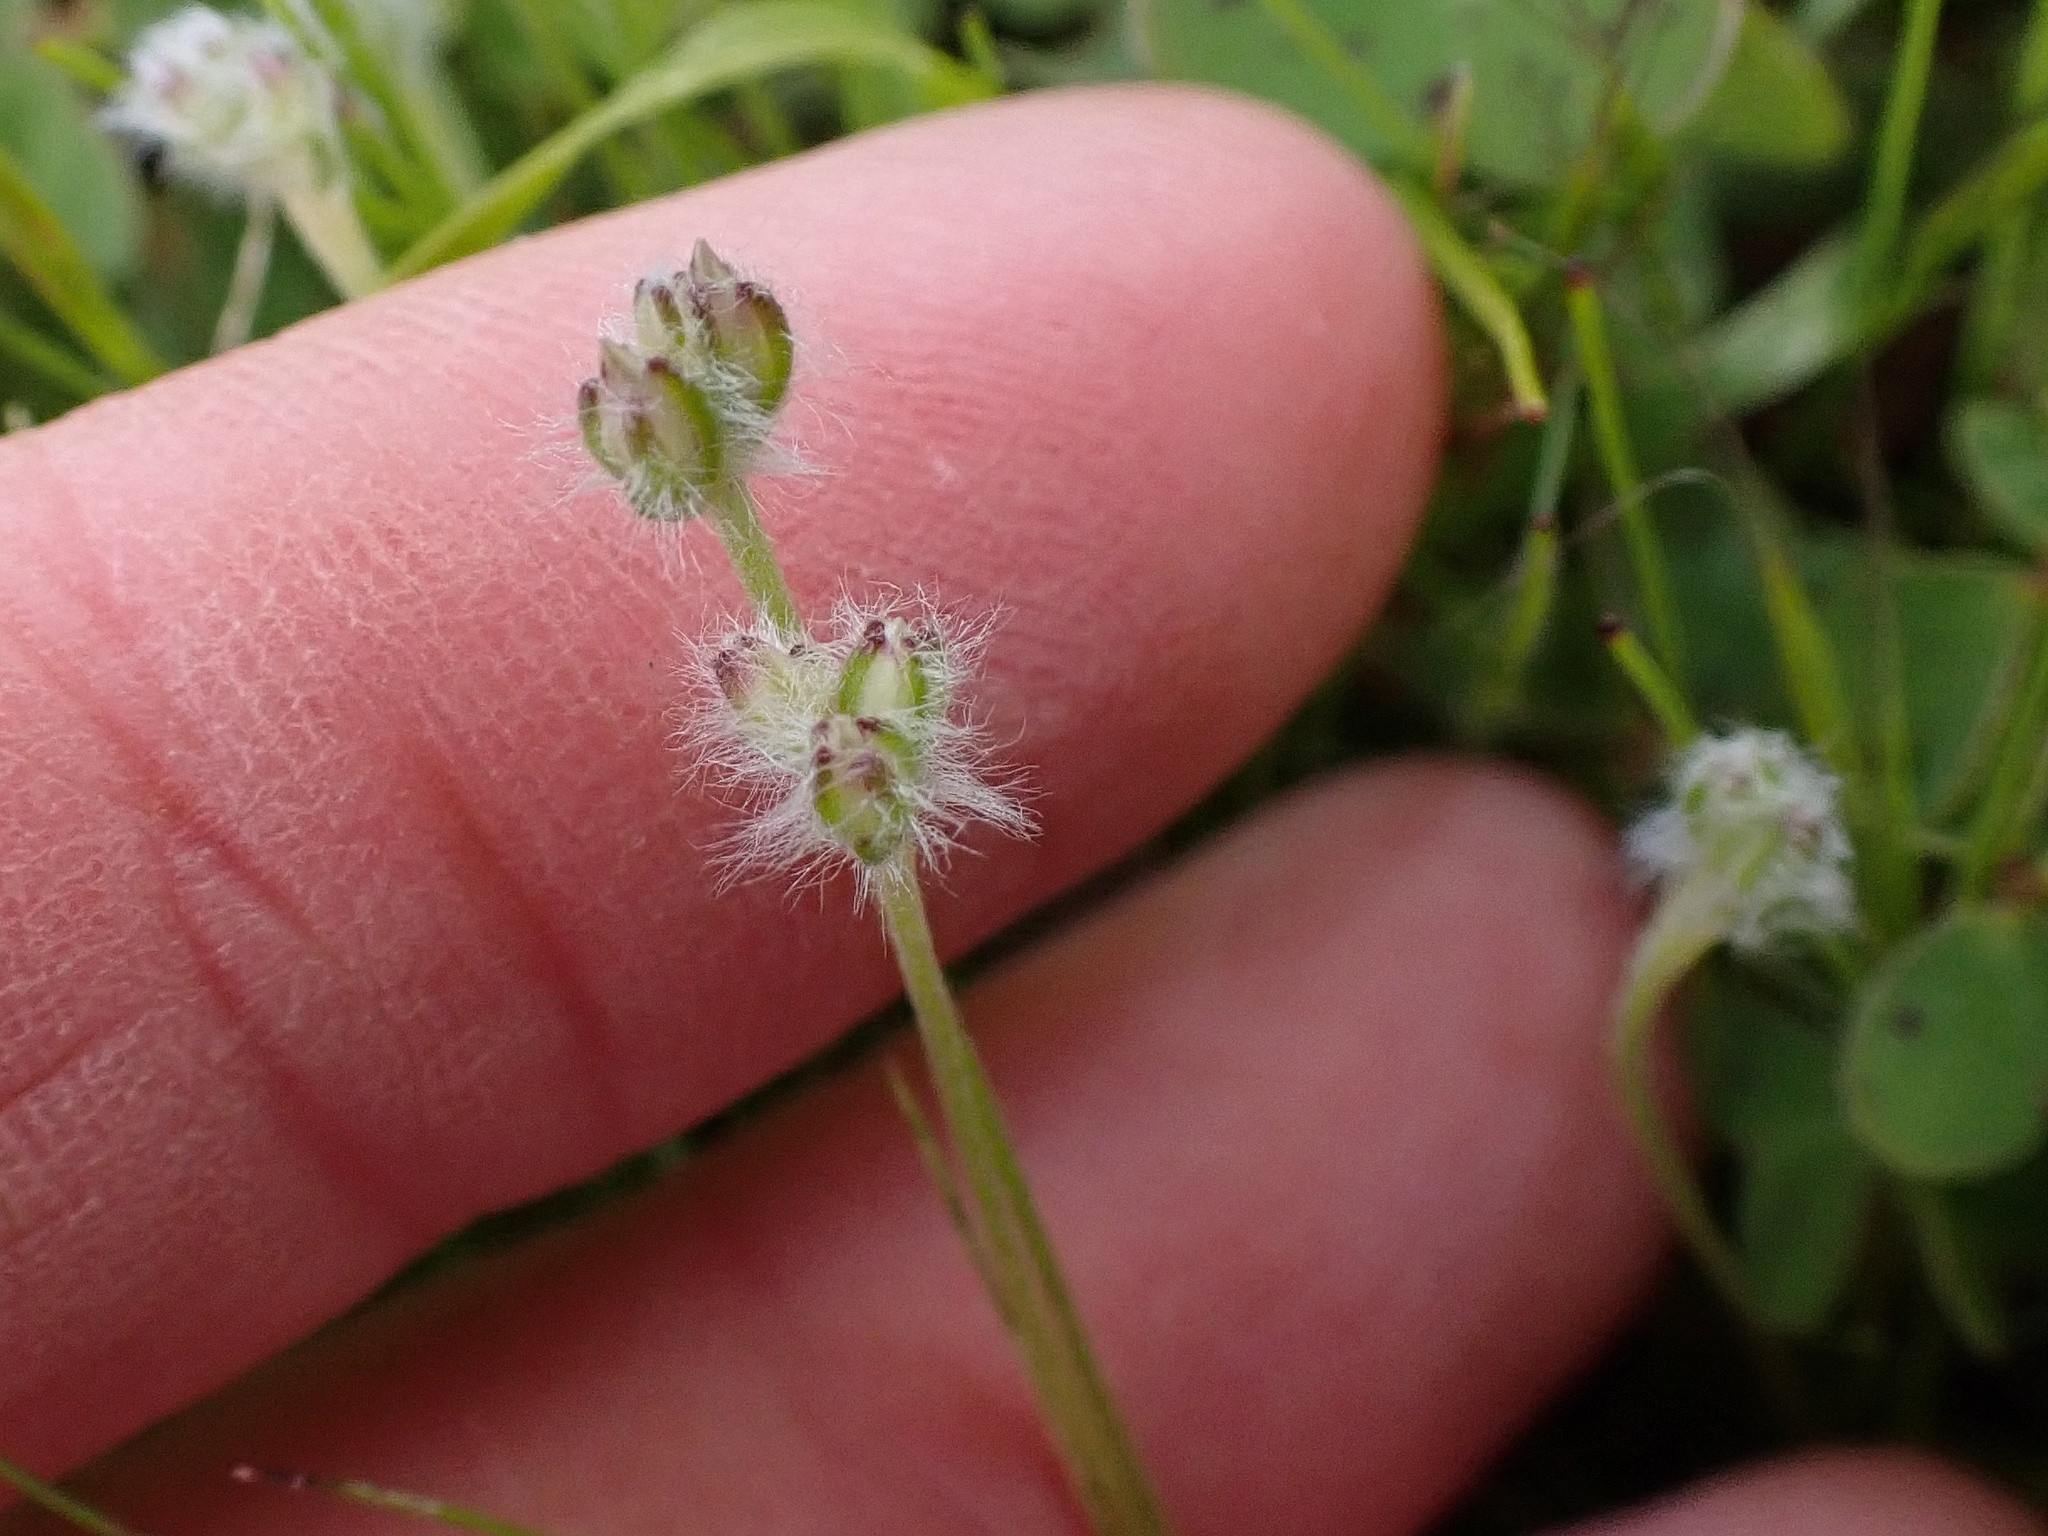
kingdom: Plantae
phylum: Tracheophyta
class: Magnoliopsida
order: Lamiales
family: Plantaginaceae
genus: Plantago
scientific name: Plantago erecta
